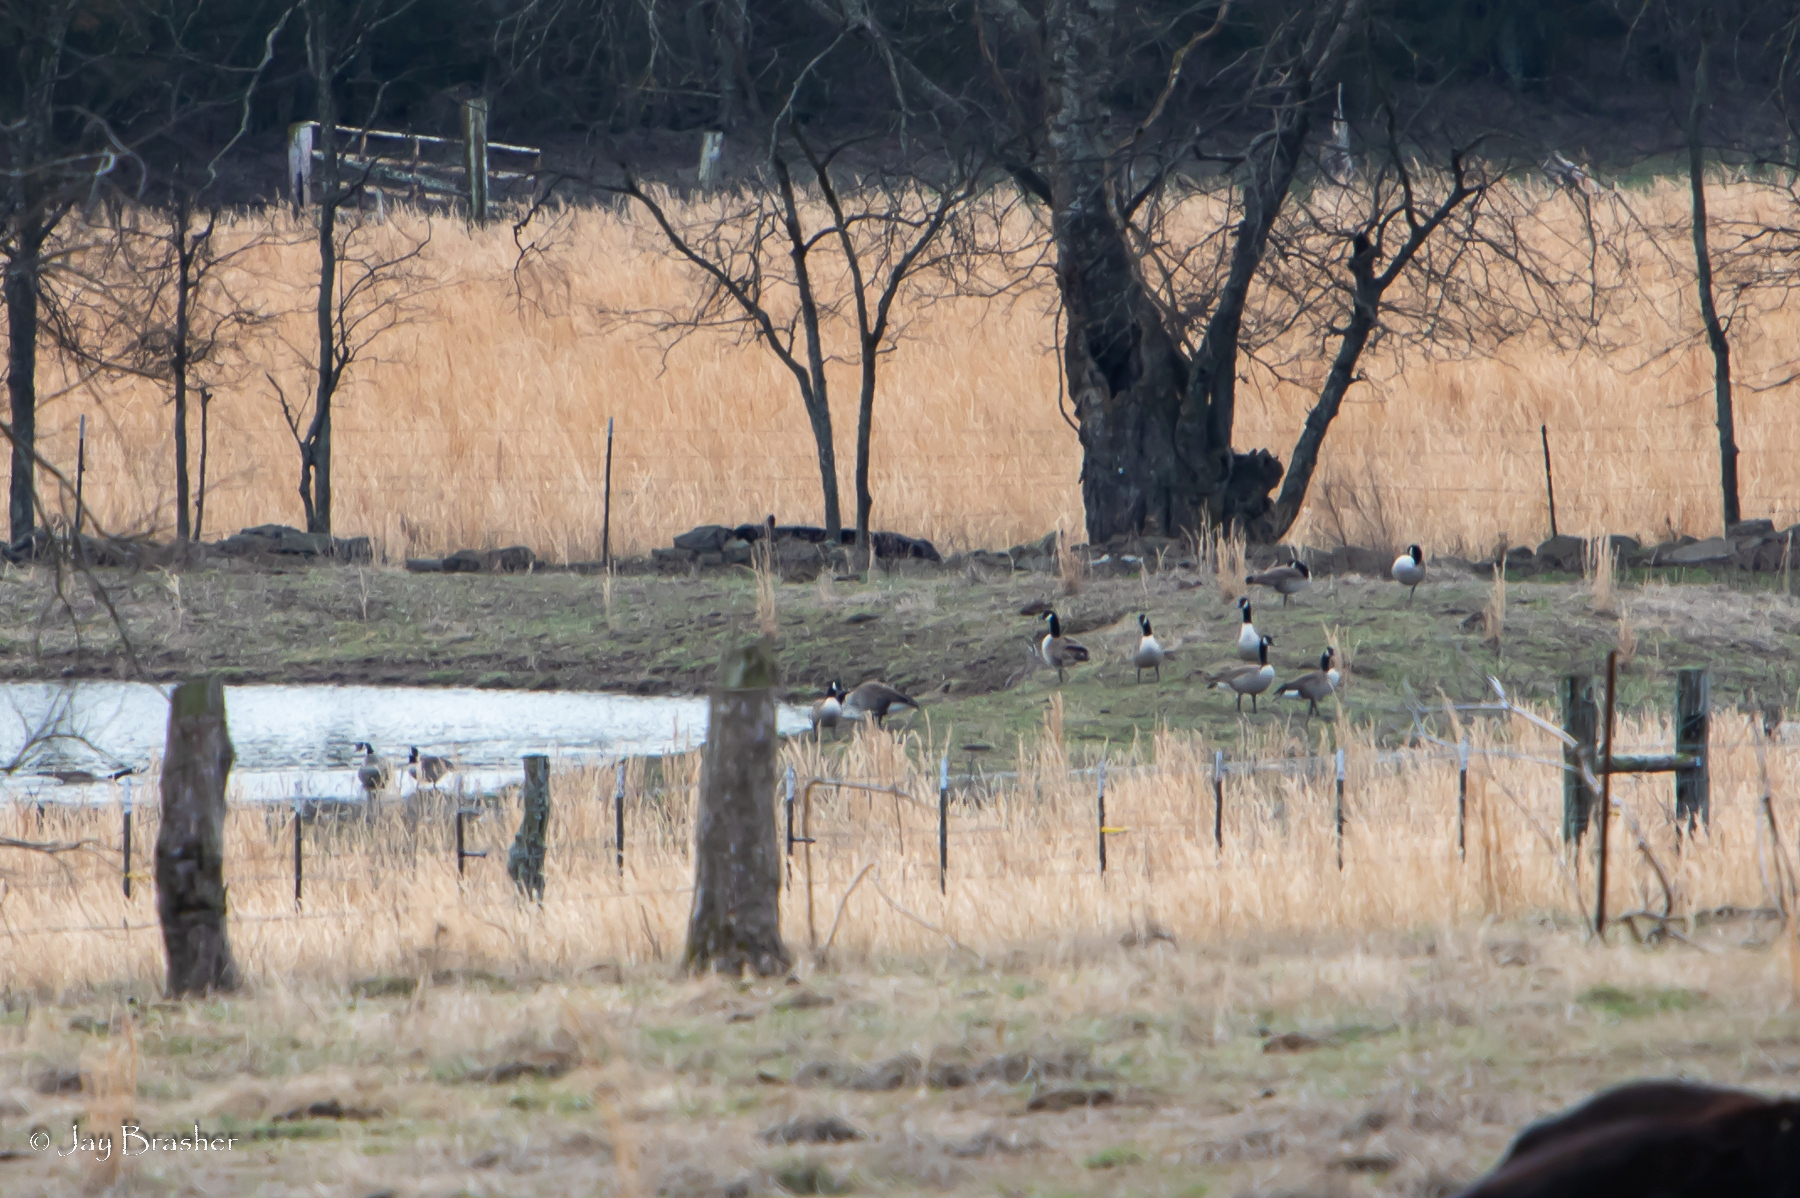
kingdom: Animalia
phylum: Chordata
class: Aves
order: Anseriformes
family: Anatidae
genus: Branta
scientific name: Branta canadensis
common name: Canada goose
